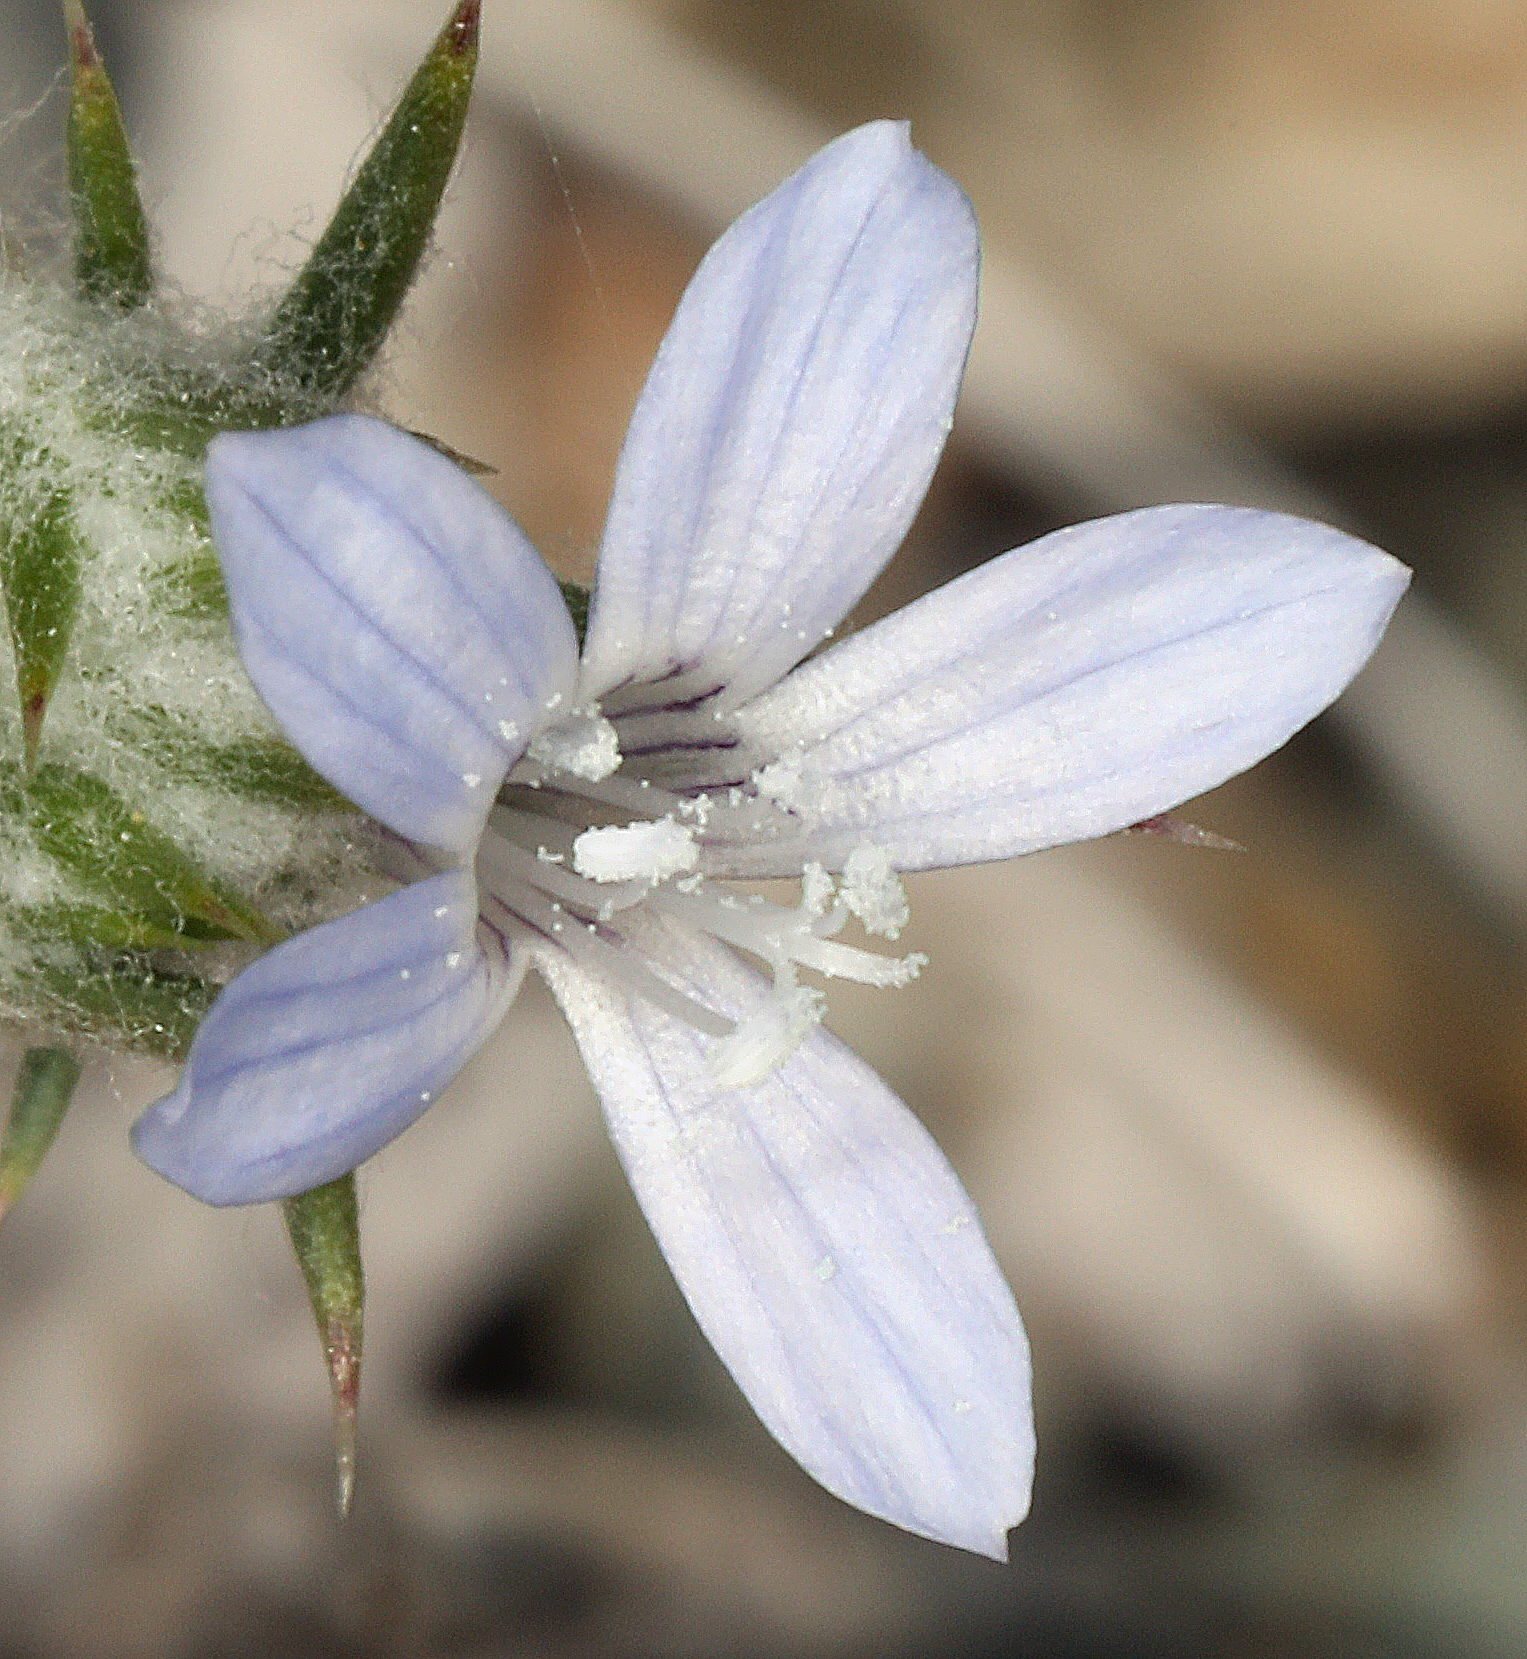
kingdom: Plantae
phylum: Tracheophyta
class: Magnoliopsida
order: Ericales
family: Polemoniaceae
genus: Eriastrum
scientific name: Eriastrum wilcoxii
